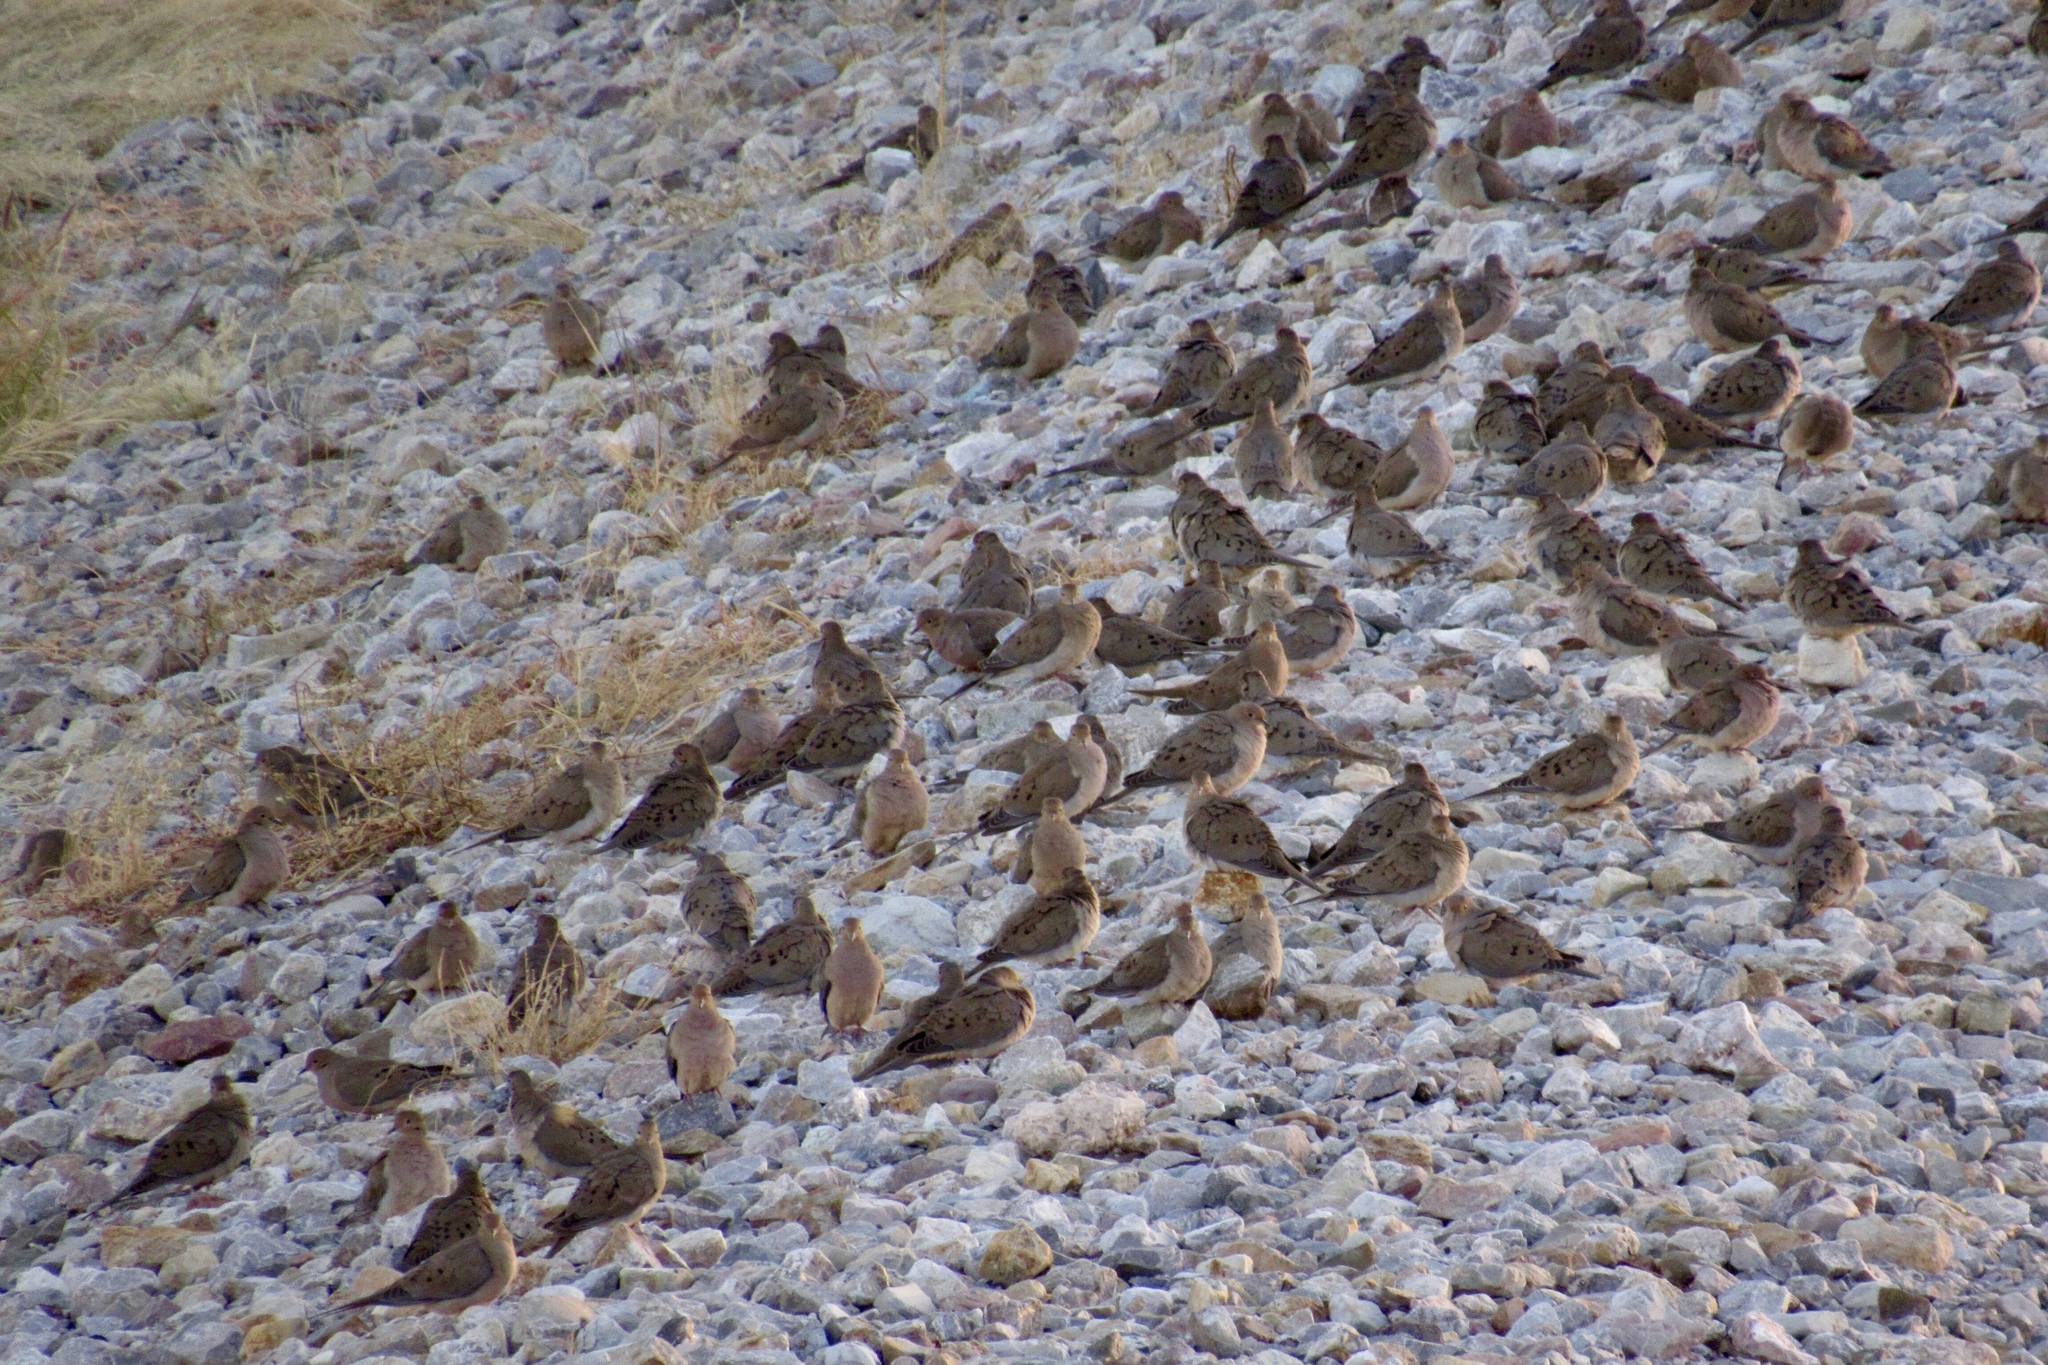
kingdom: Animalia
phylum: Chordata
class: Aves
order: Columbiformes
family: Columbidae
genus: Zenaida
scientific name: Zenaida macroura
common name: Mourning dove
